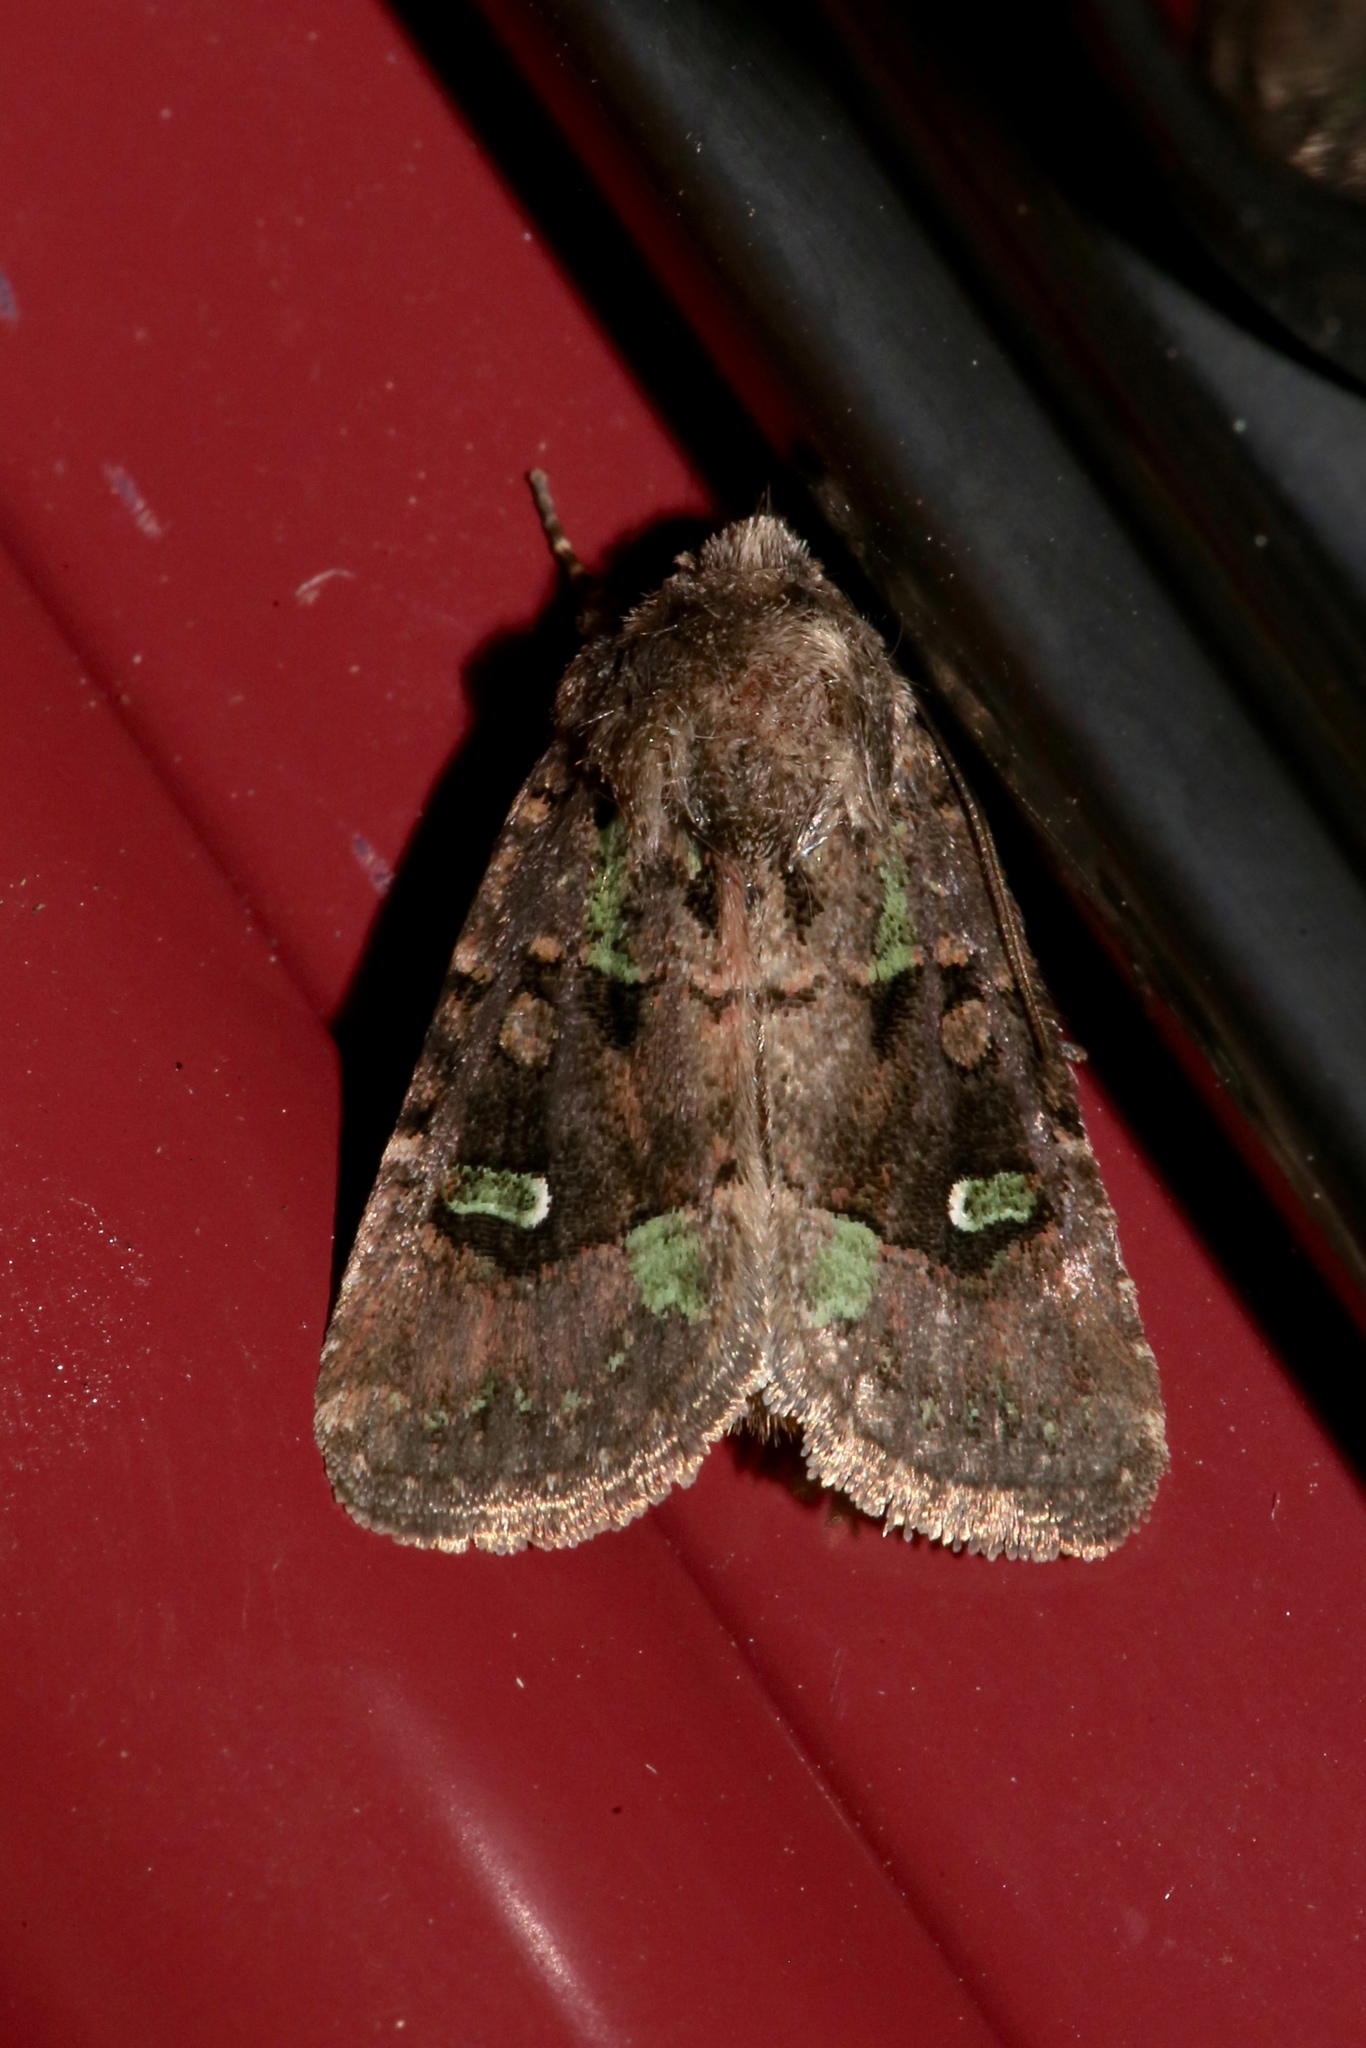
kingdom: Animalia
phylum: Arthropoda
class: Insecta
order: Lepidoptera
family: Noctuidae
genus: Lacinipolia
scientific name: Lacinipolia renigera
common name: Kidney-spotted minor
